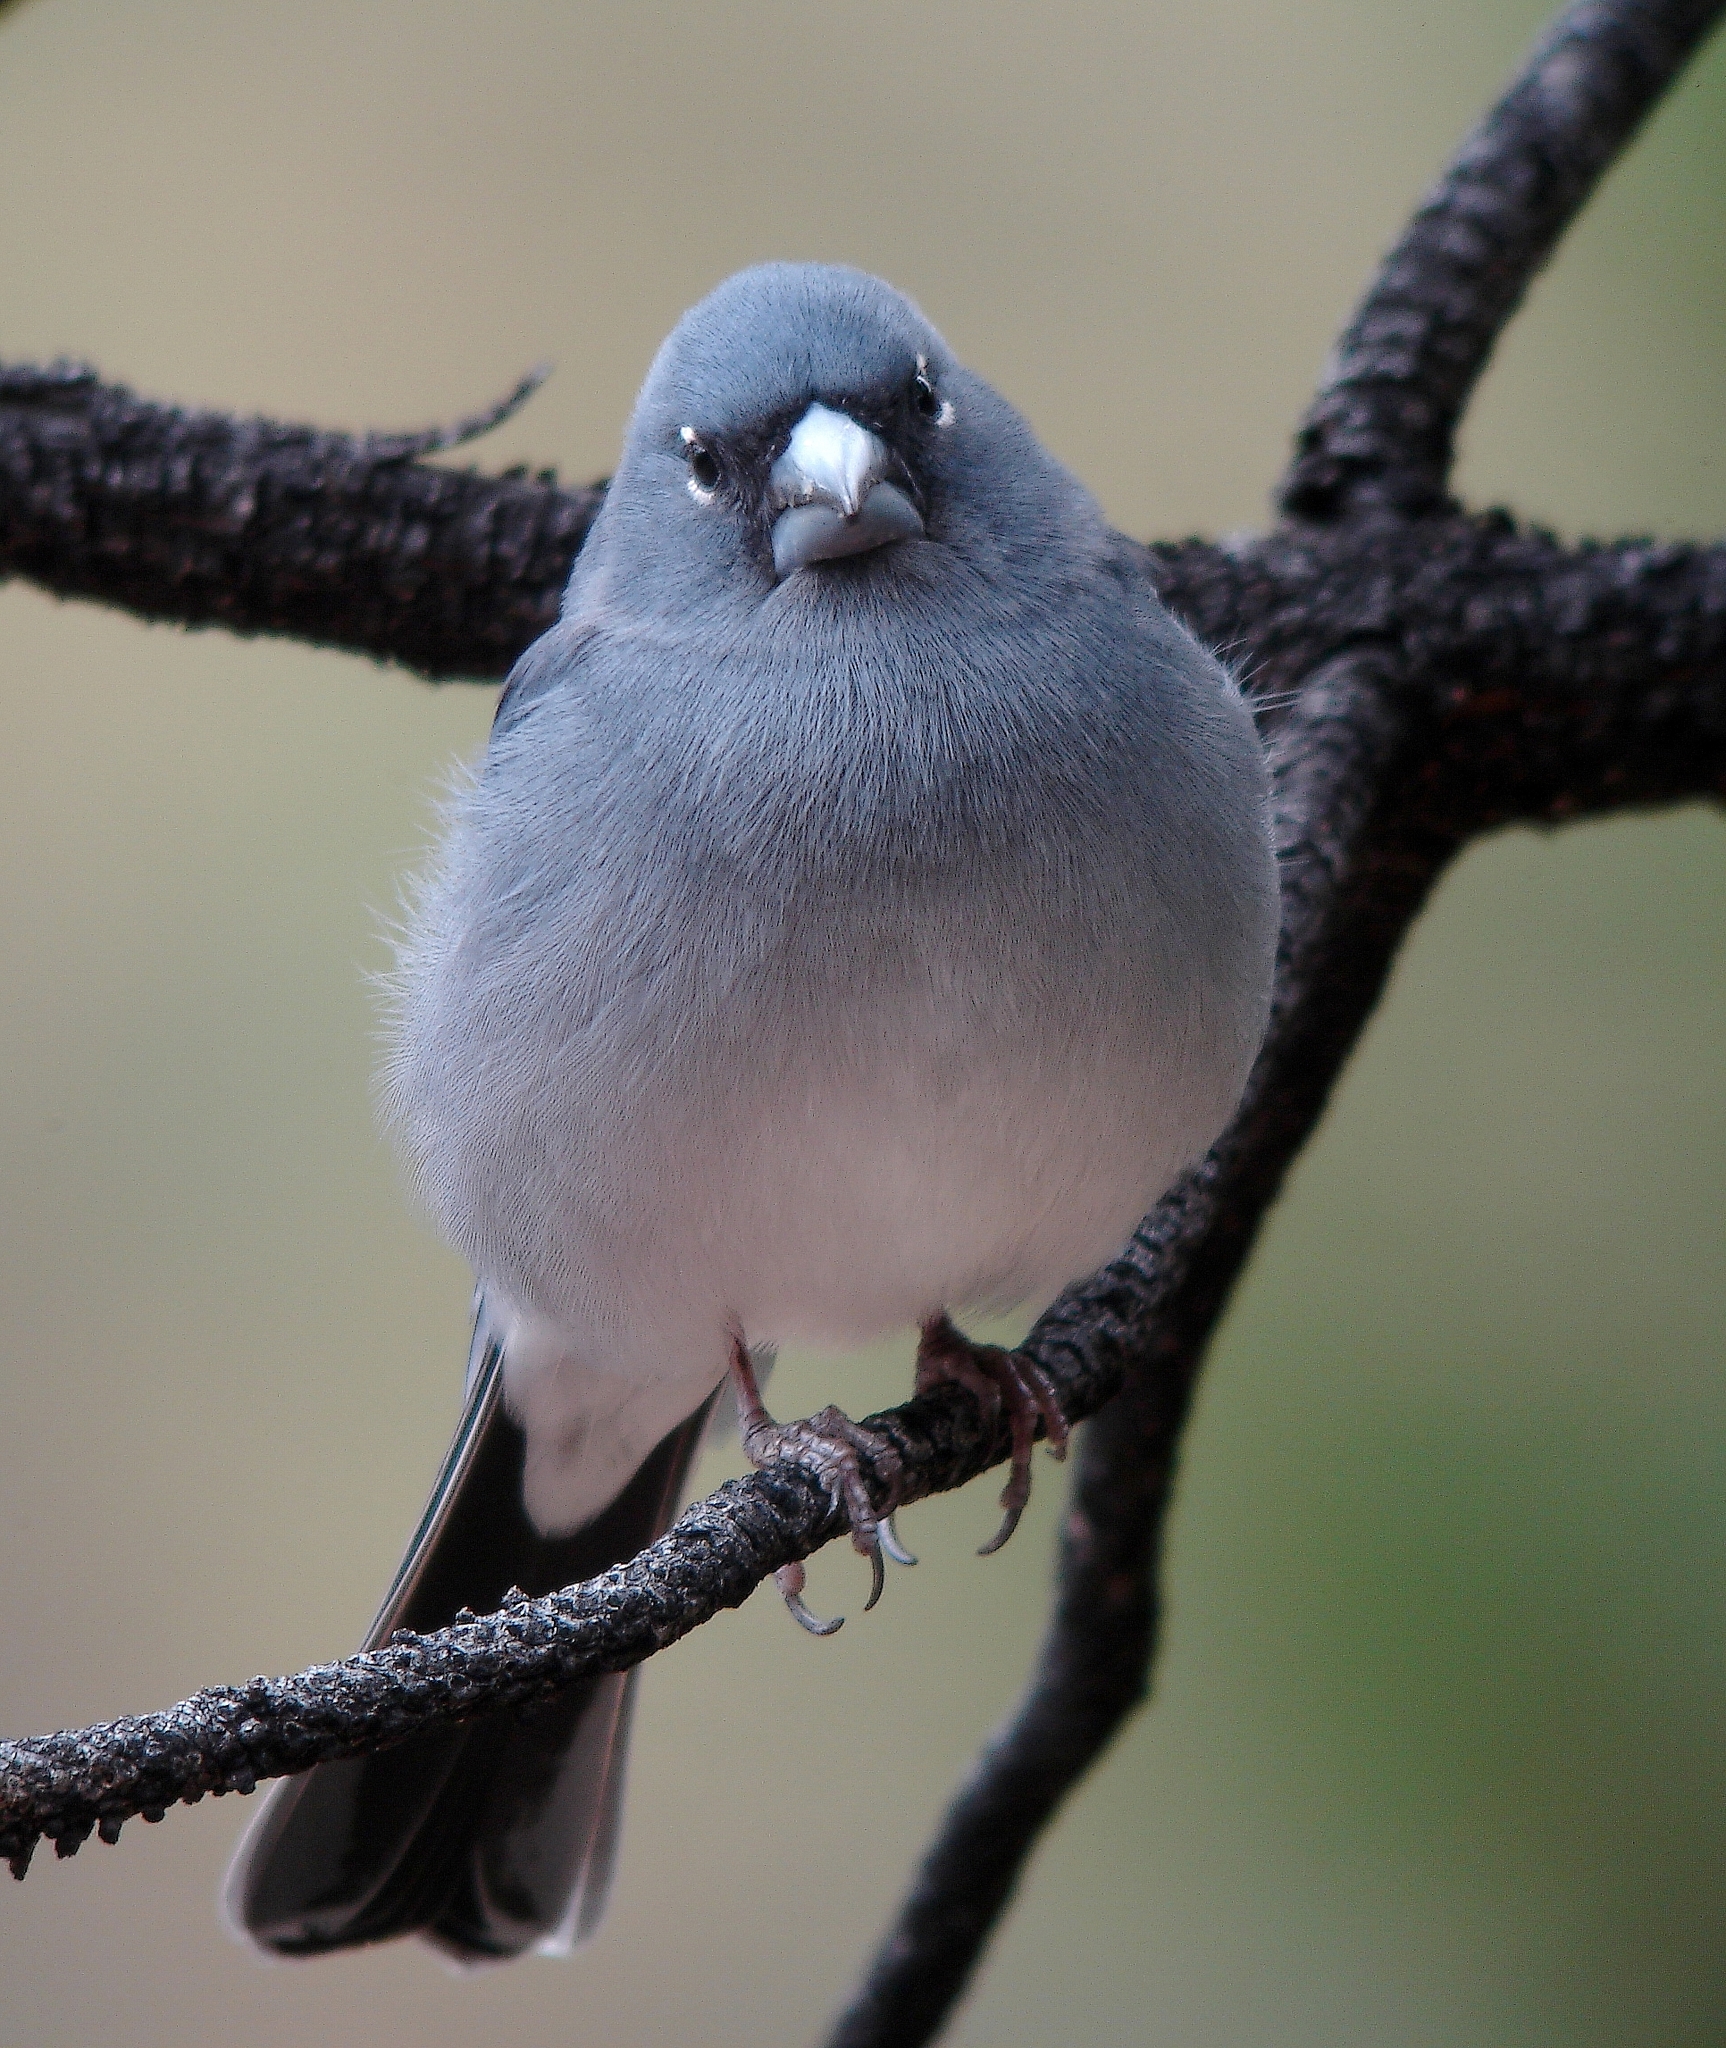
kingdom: Animalia
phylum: Chordata
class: Aves
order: Passeriformes
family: Fringillidae
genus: Fringilla
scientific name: Fringilla teydea
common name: Blue chaffinch
